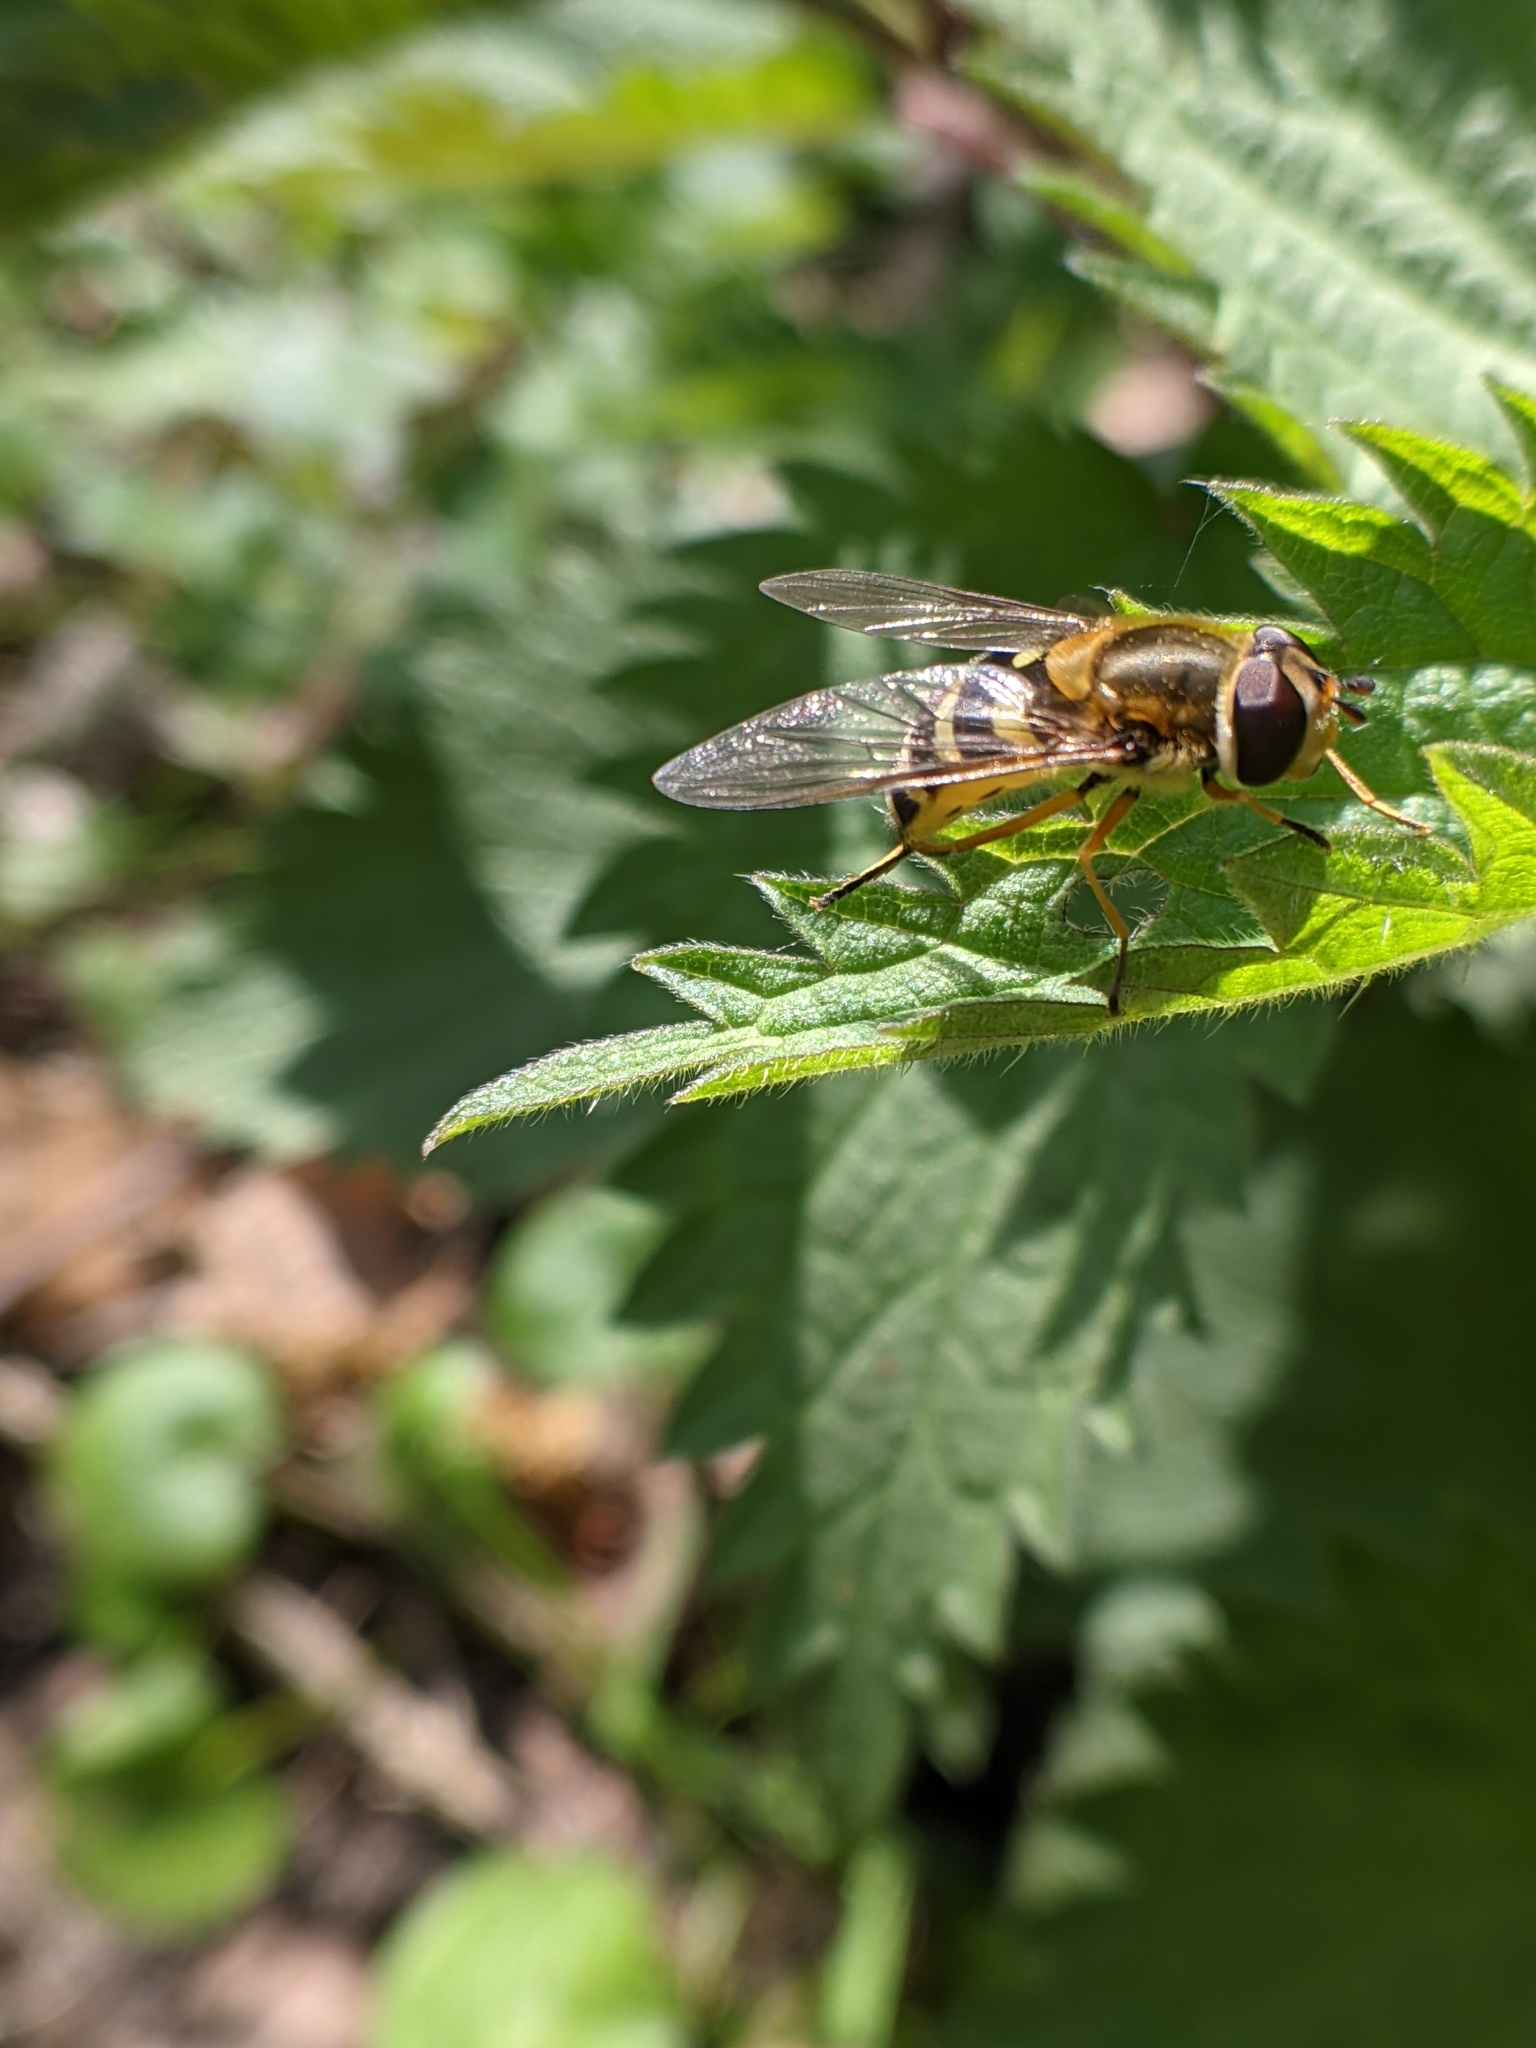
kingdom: Animalia
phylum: Arthropoda
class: Insecta
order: Diptera
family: Syrphidae
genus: Syrphus
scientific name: Syrphus ribesii
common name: Common flower fly
